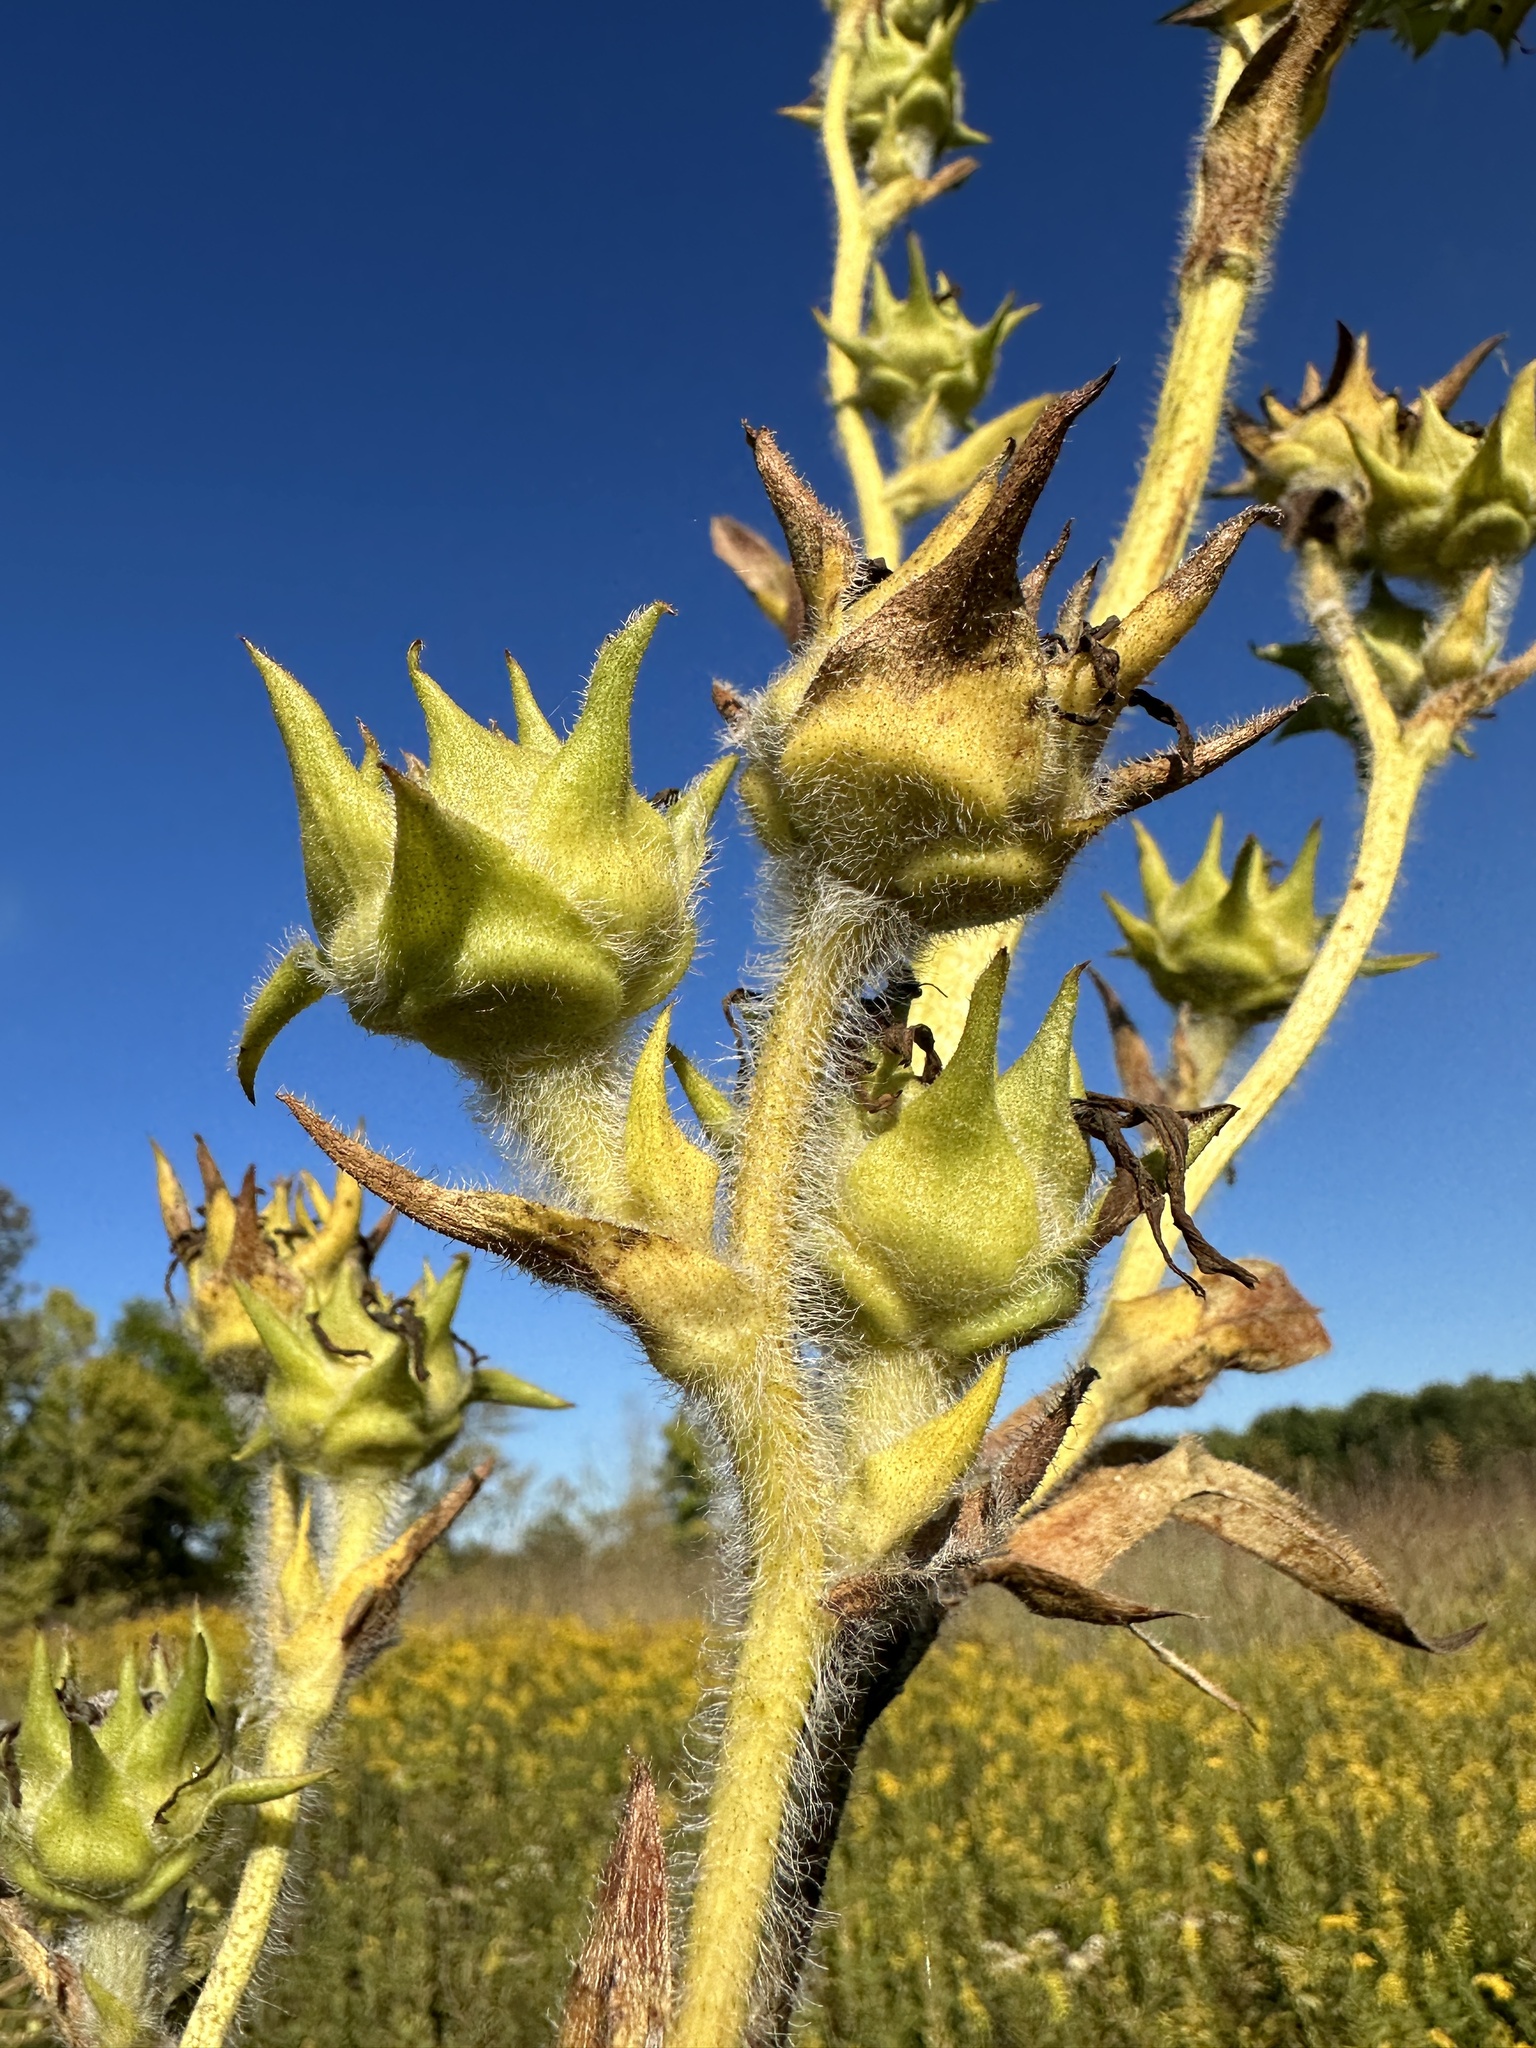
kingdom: Plantae
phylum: Tracheophyta
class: Magnoliopsida
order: Asterales
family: Asteraceae
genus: Silphium
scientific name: Silphium laciniatum
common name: Polarplant
